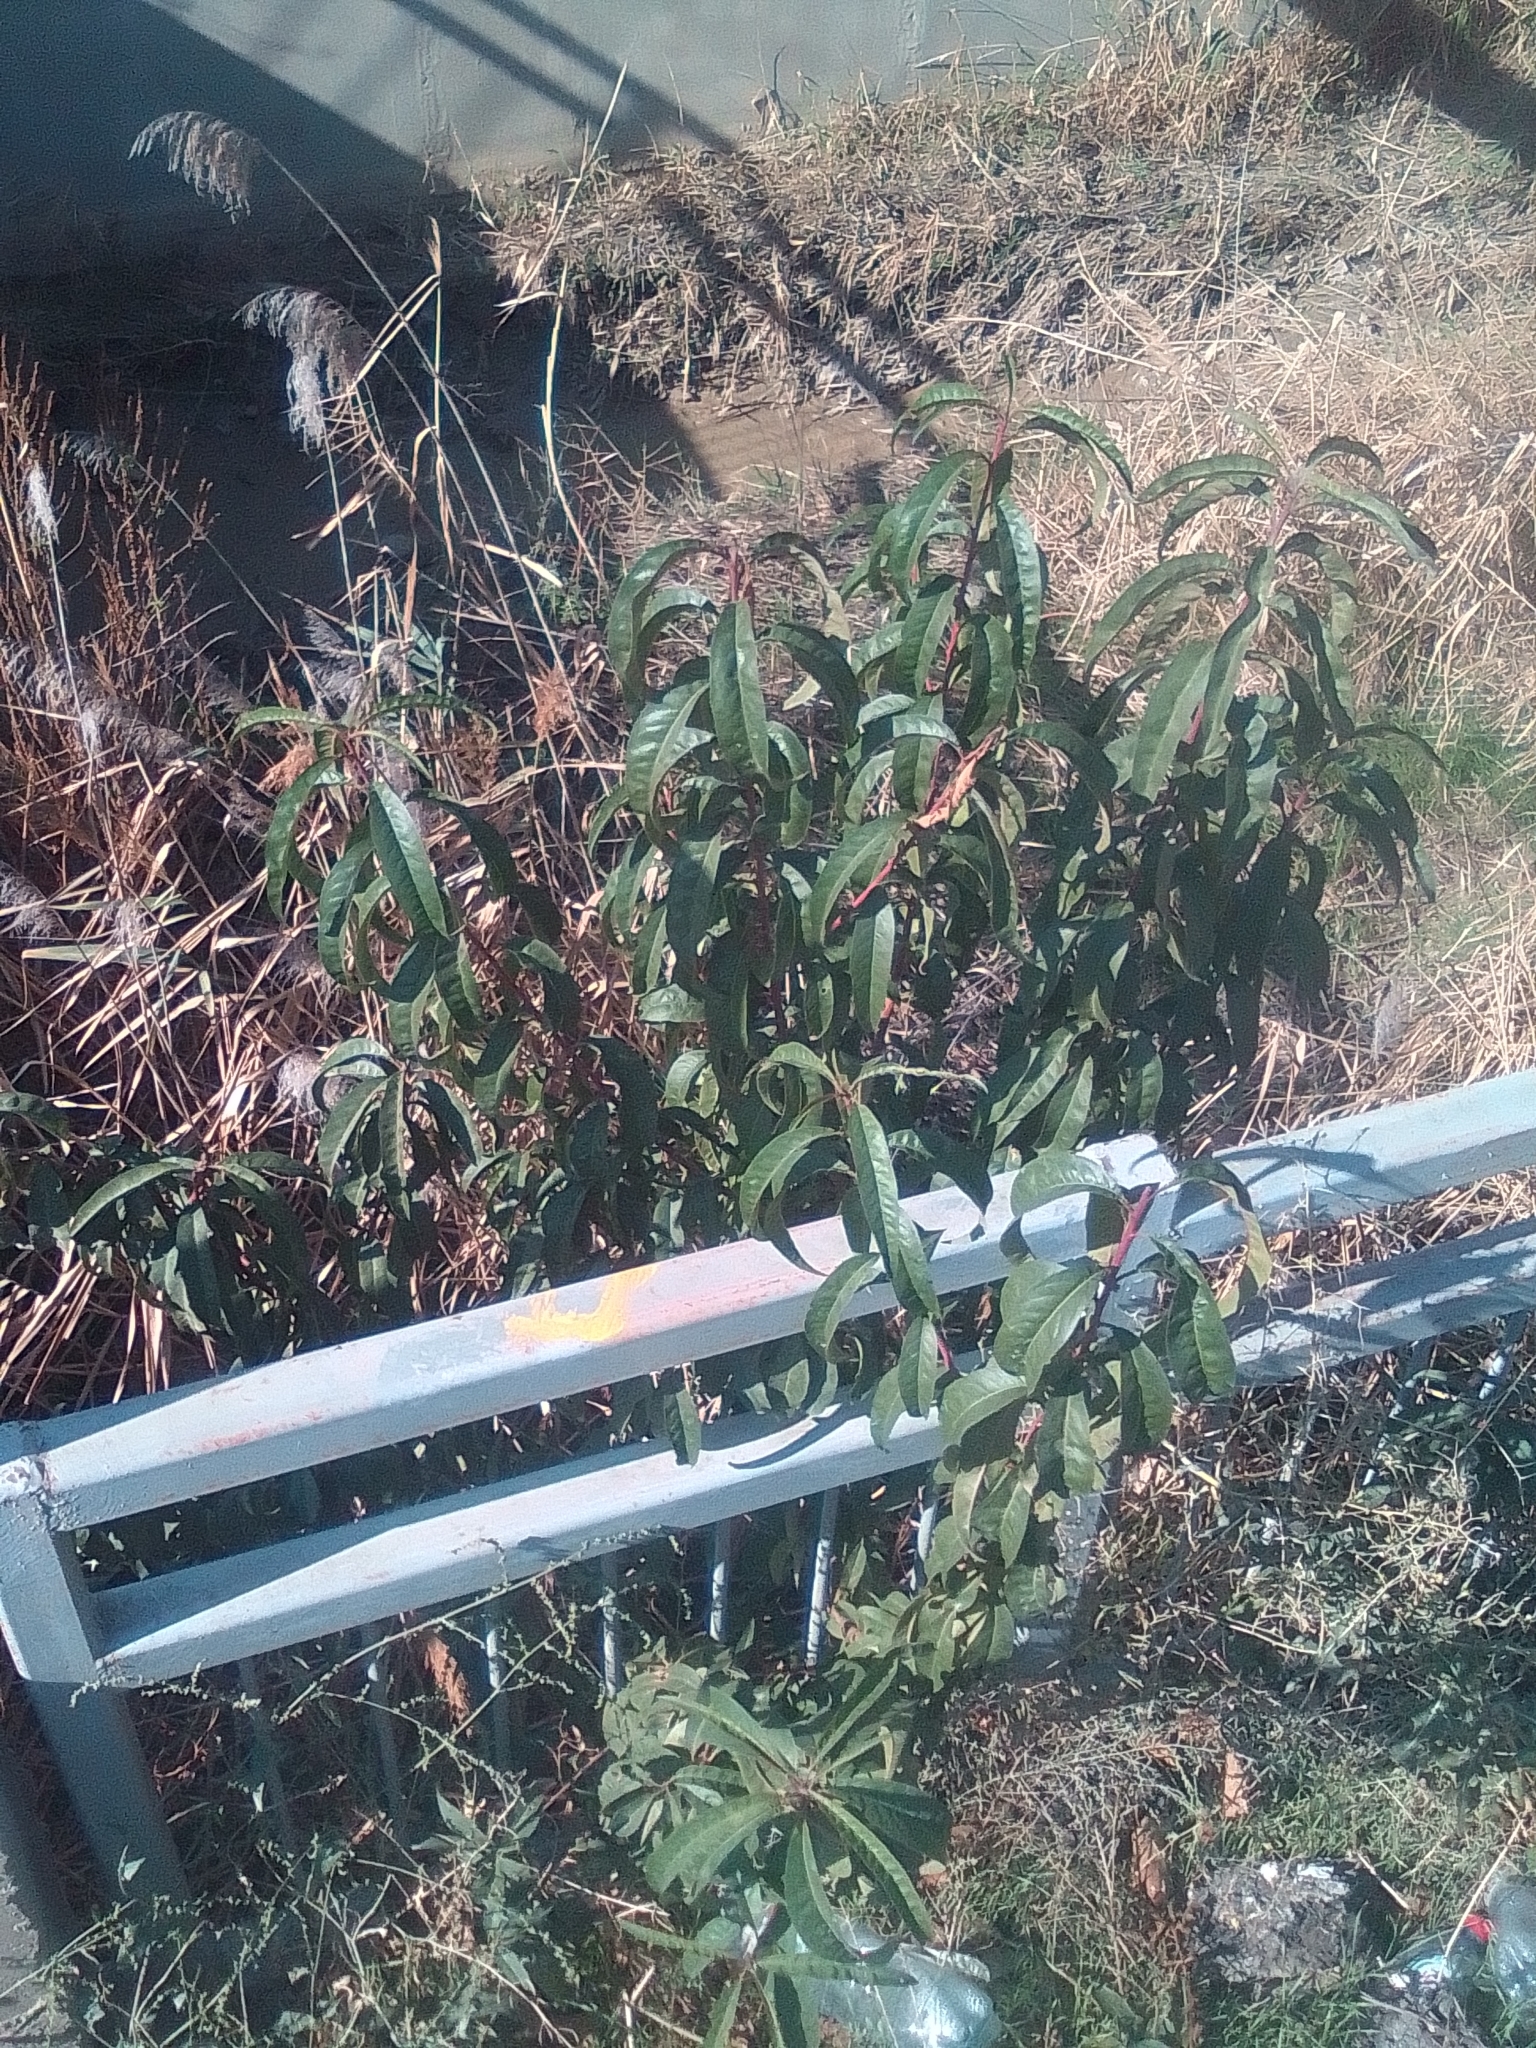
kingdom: Plantae
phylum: Tracheophyta
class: Magnoliopsida
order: Rosales
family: Rosaceae
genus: Prunus
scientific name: Prunus persica
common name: Peach
